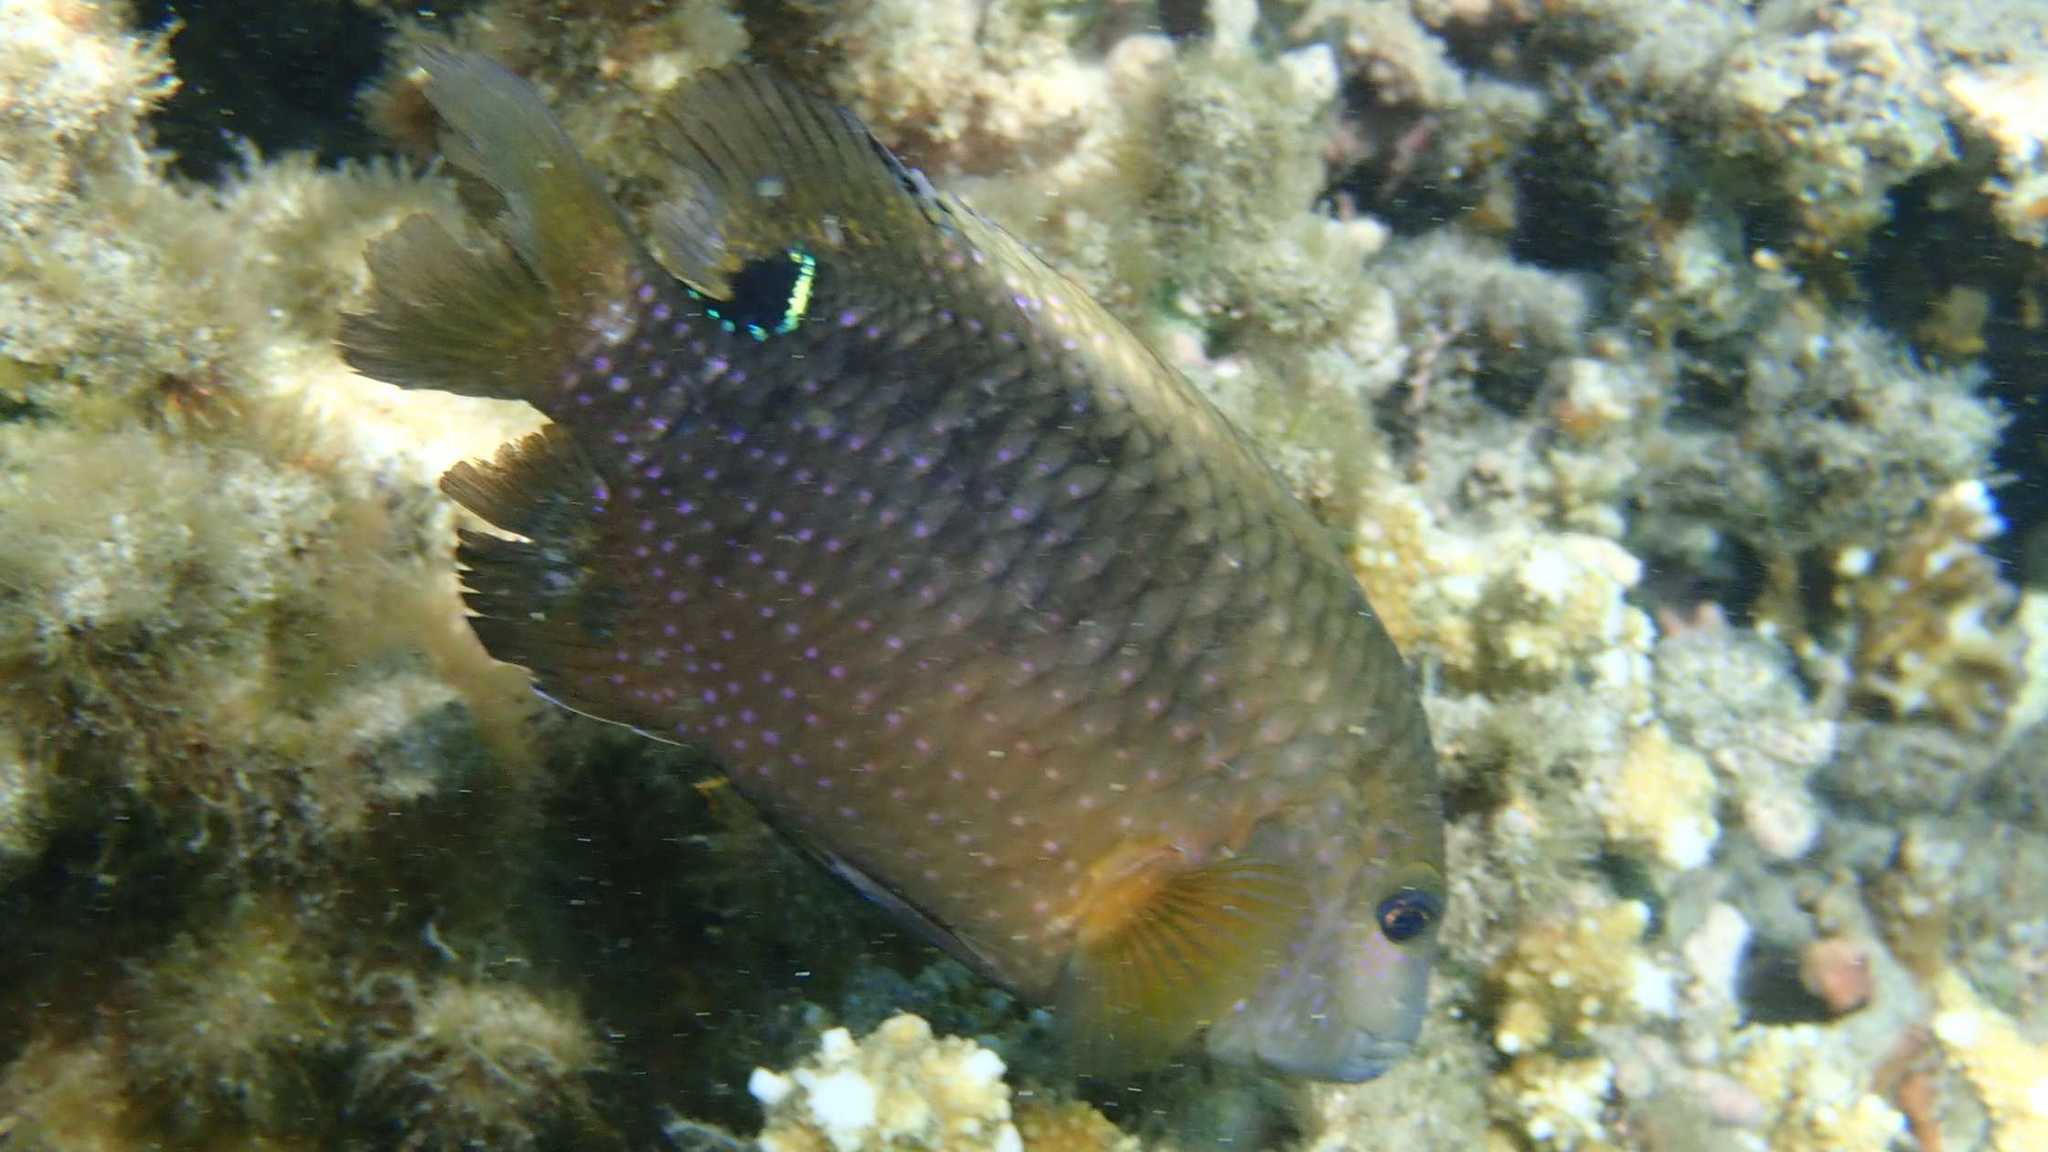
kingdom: Animalia
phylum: Chordata
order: Perciformes
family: Pomacentridae
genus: Stegastes
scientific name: Stegastes punctatus
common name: Blunt snout gregory
